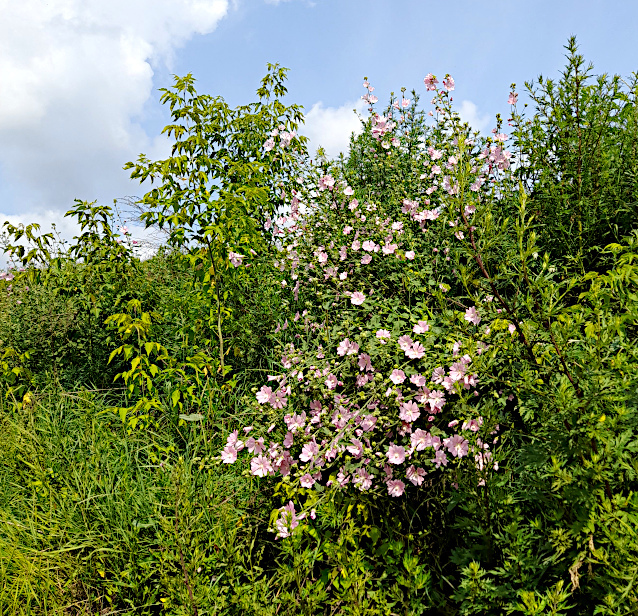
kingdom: Plantae
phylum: Tracheophyta
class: Magnoliopsida
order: Malvales
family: Malvaceae
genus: Malva
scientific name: Malva thuringiaca
